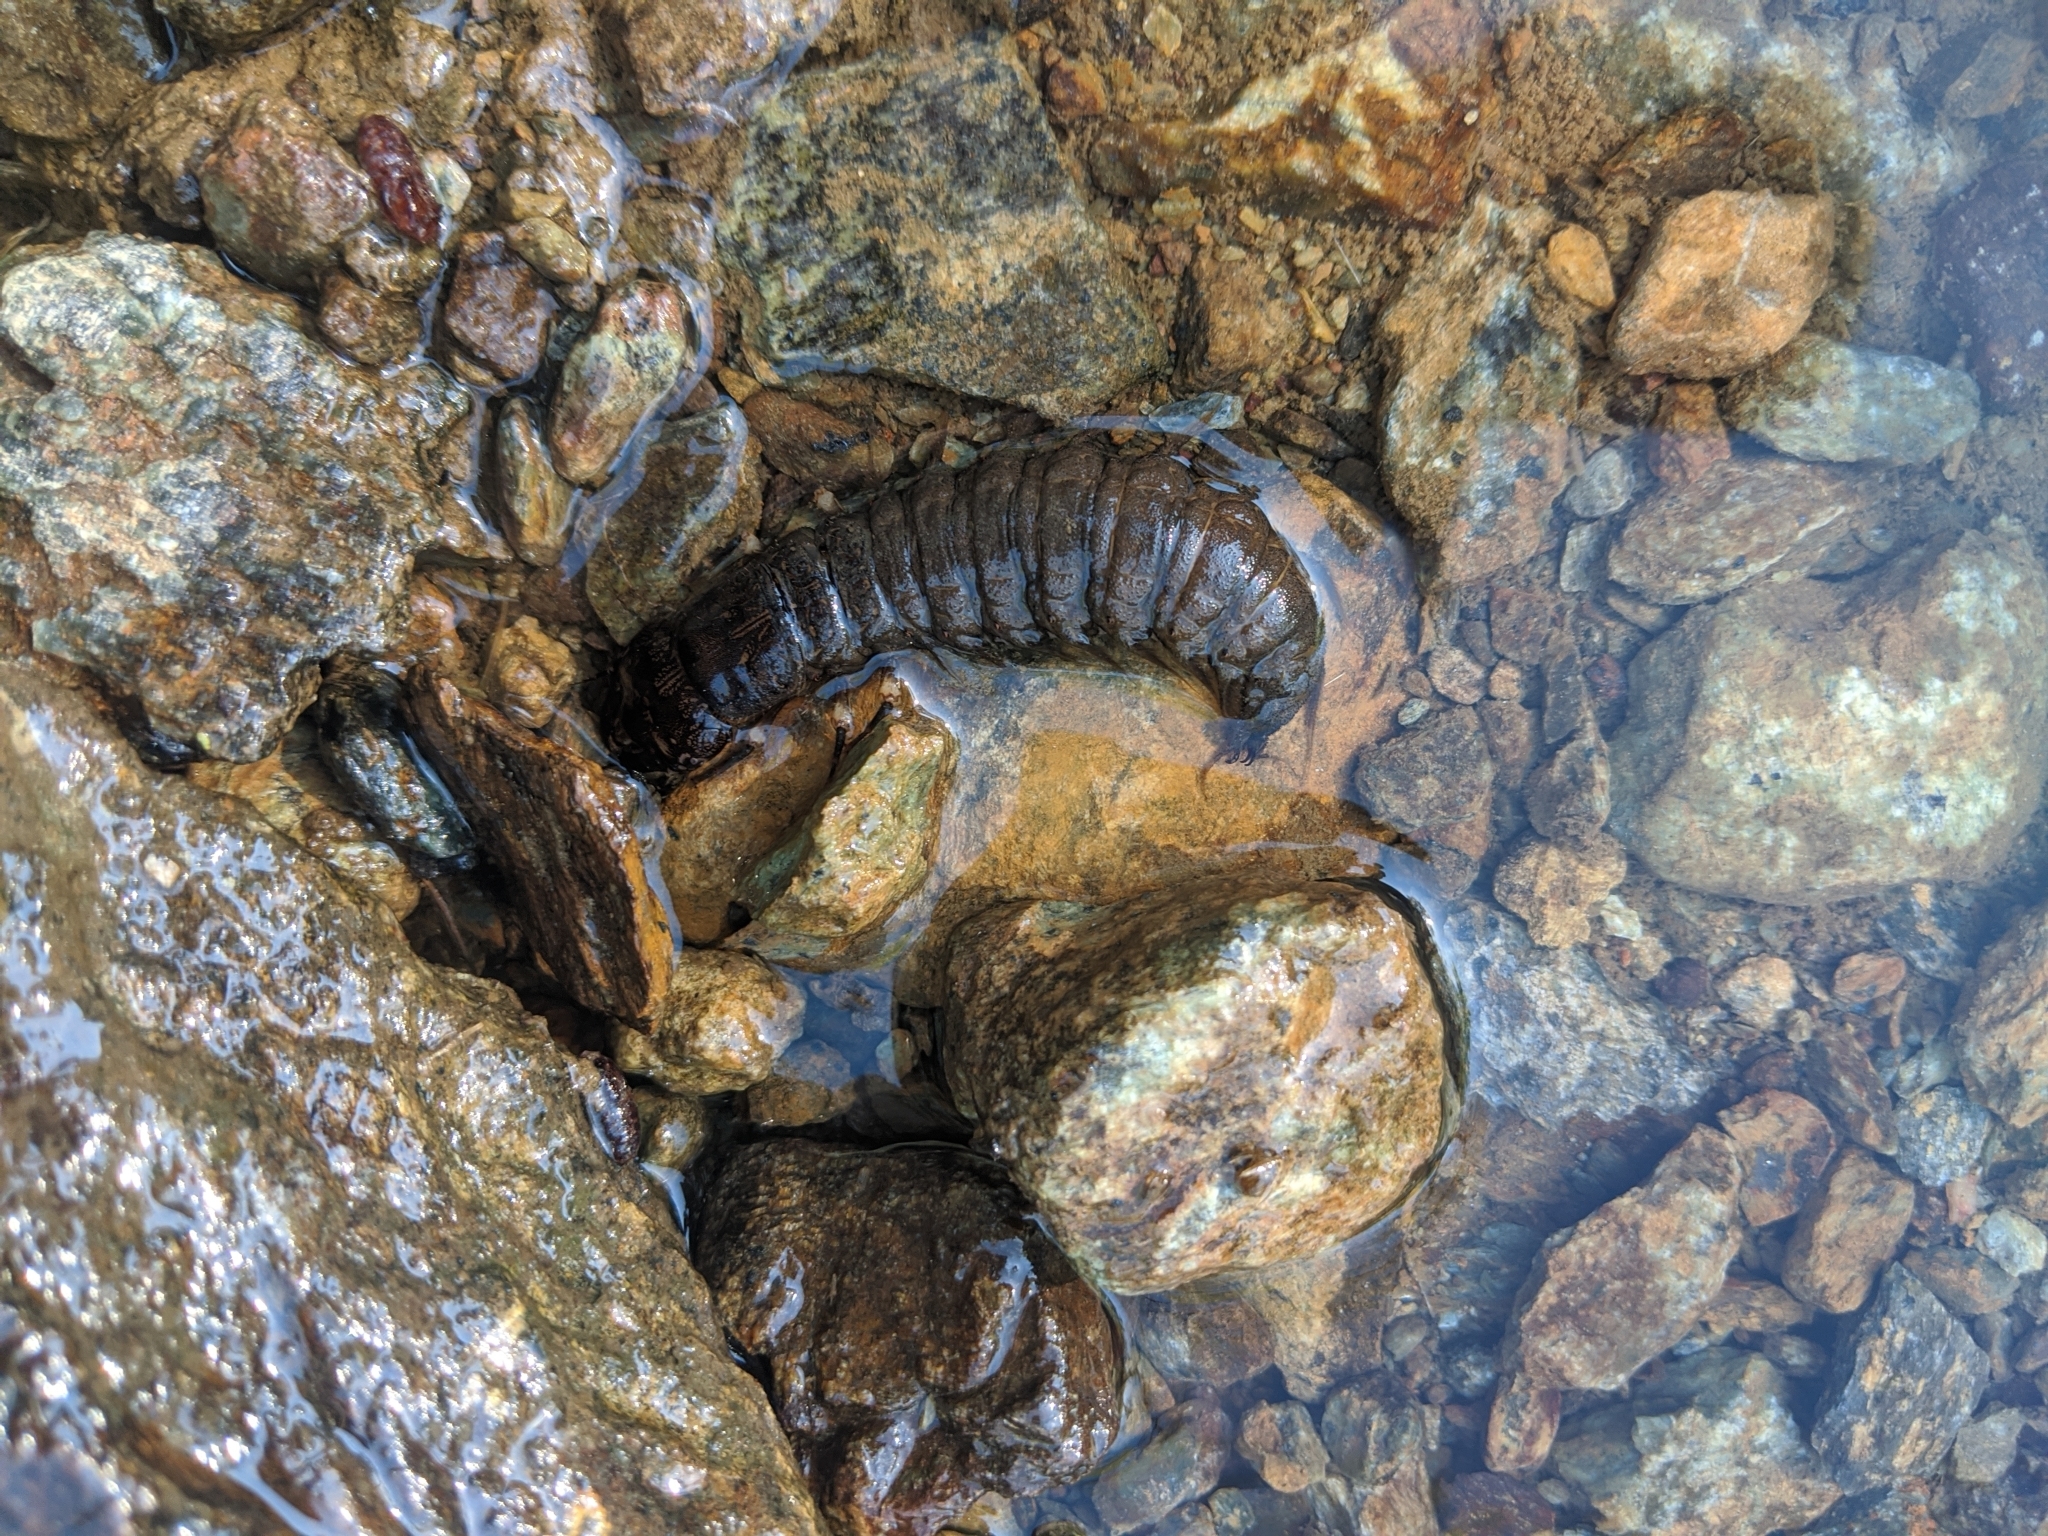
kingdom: Animalia
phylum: Arthropoda
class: Insecta
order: Megaloptera
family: Corydalidae
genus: Corydalus
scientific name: Corydalus cornutus
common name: Dobsonfly
